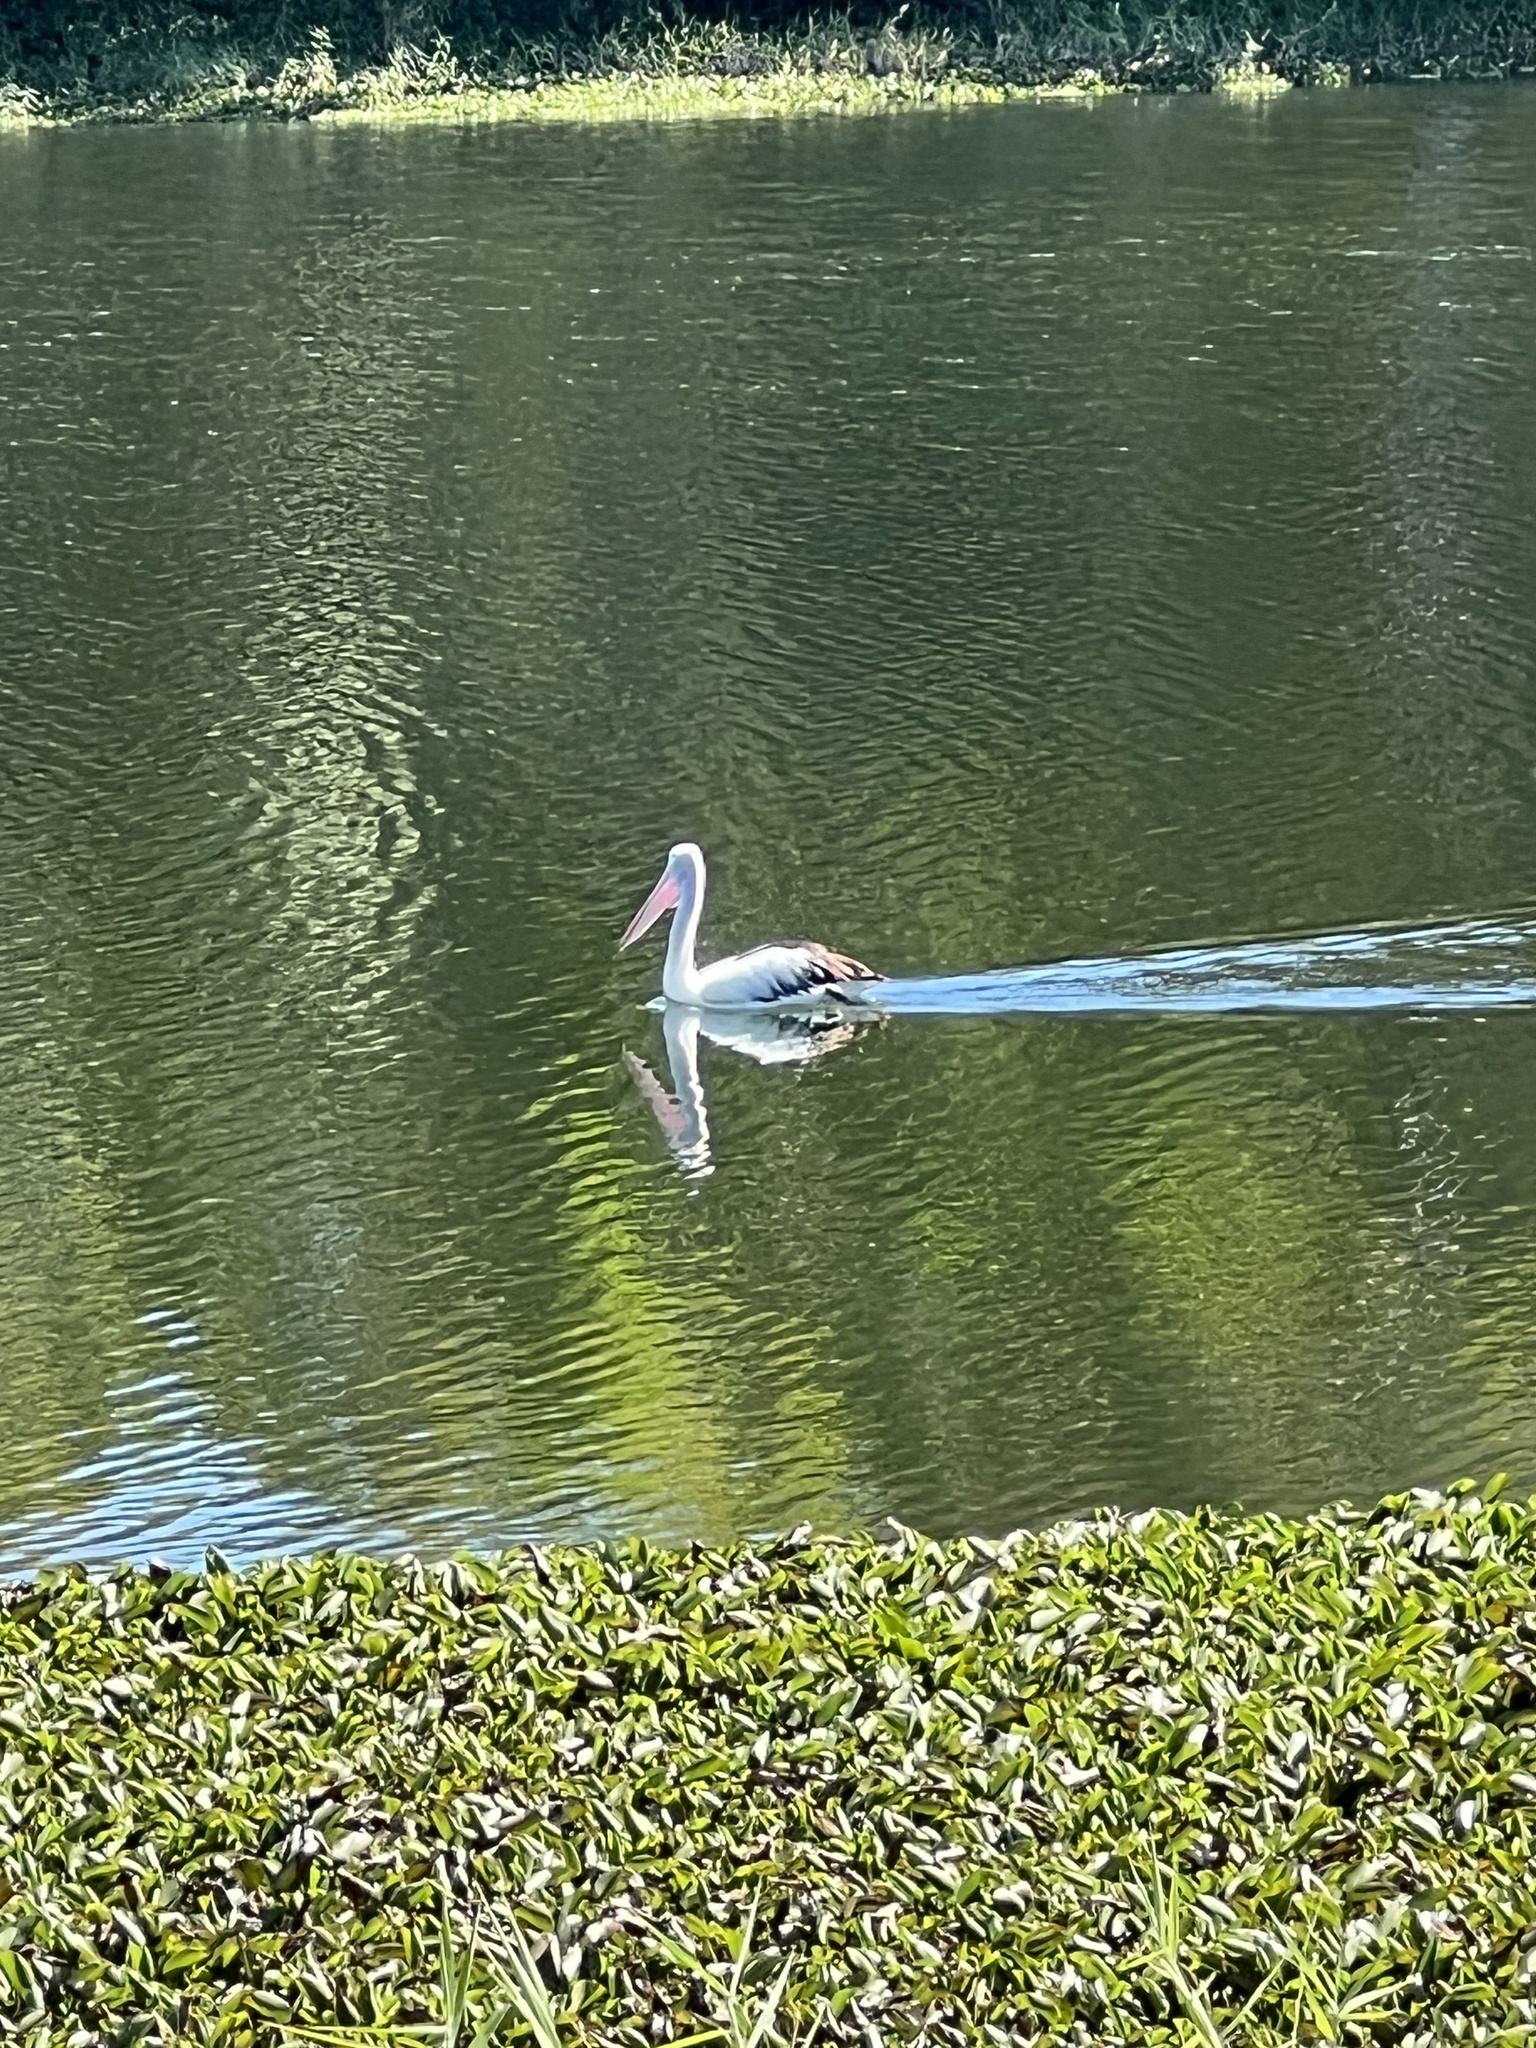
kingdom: Animalia
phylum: Chordata
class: Aves
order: Pelecaniformes
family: Pelecanidae
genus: Pelecanus
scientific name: Pelecanus conspicillatus
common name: Australian pelican
